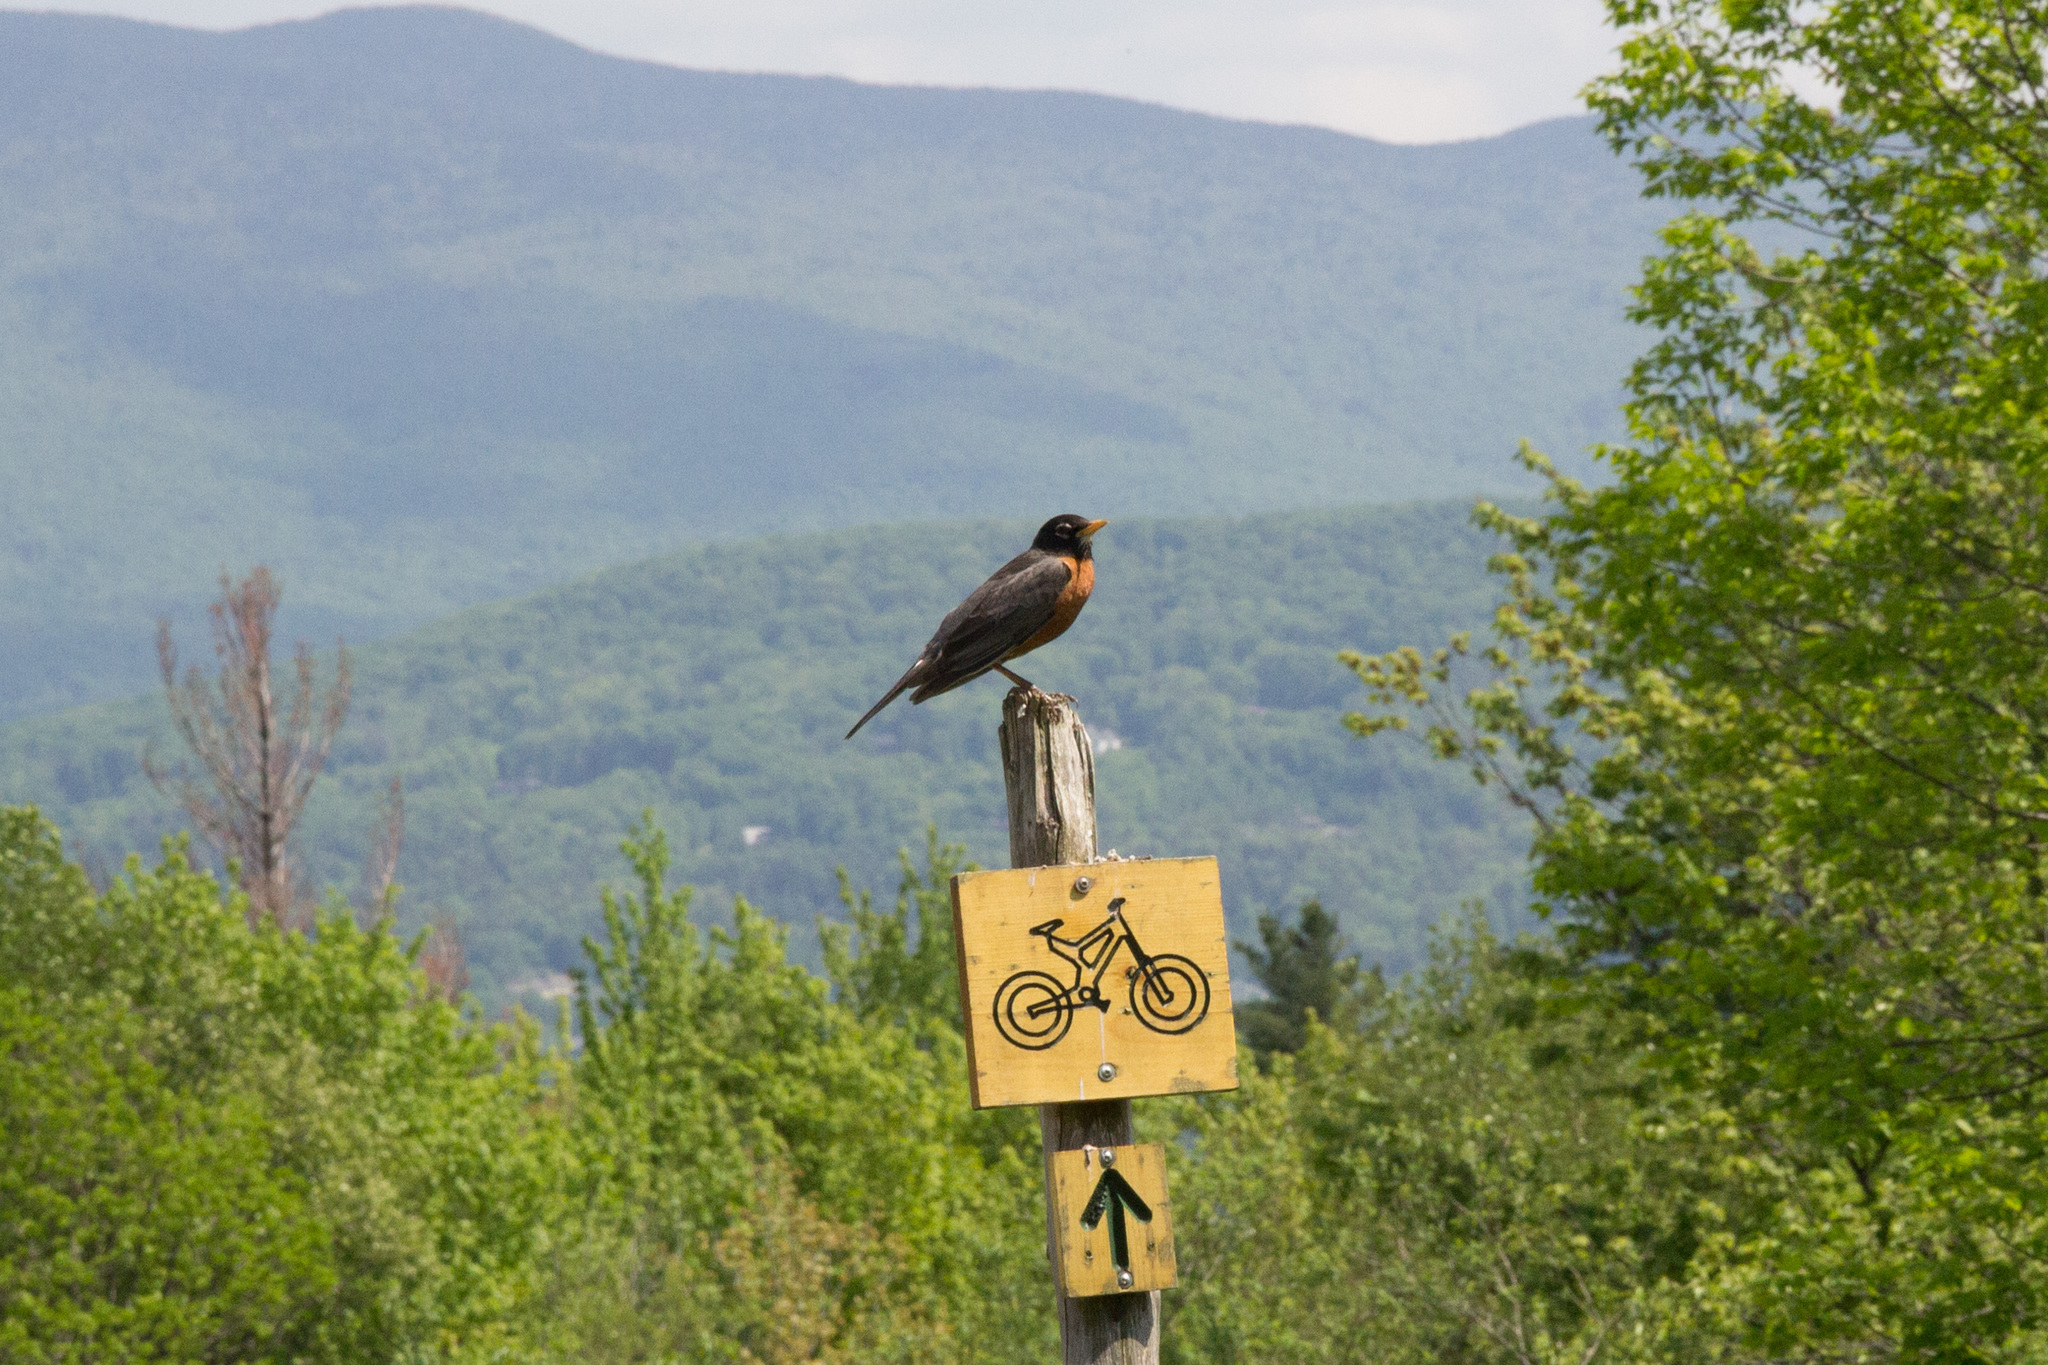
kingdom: Animalia
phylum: Chordata
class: Aves
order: Passeriformes
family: Turdidae
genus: Turdus
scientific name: Turdus migratorius
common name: American robin
